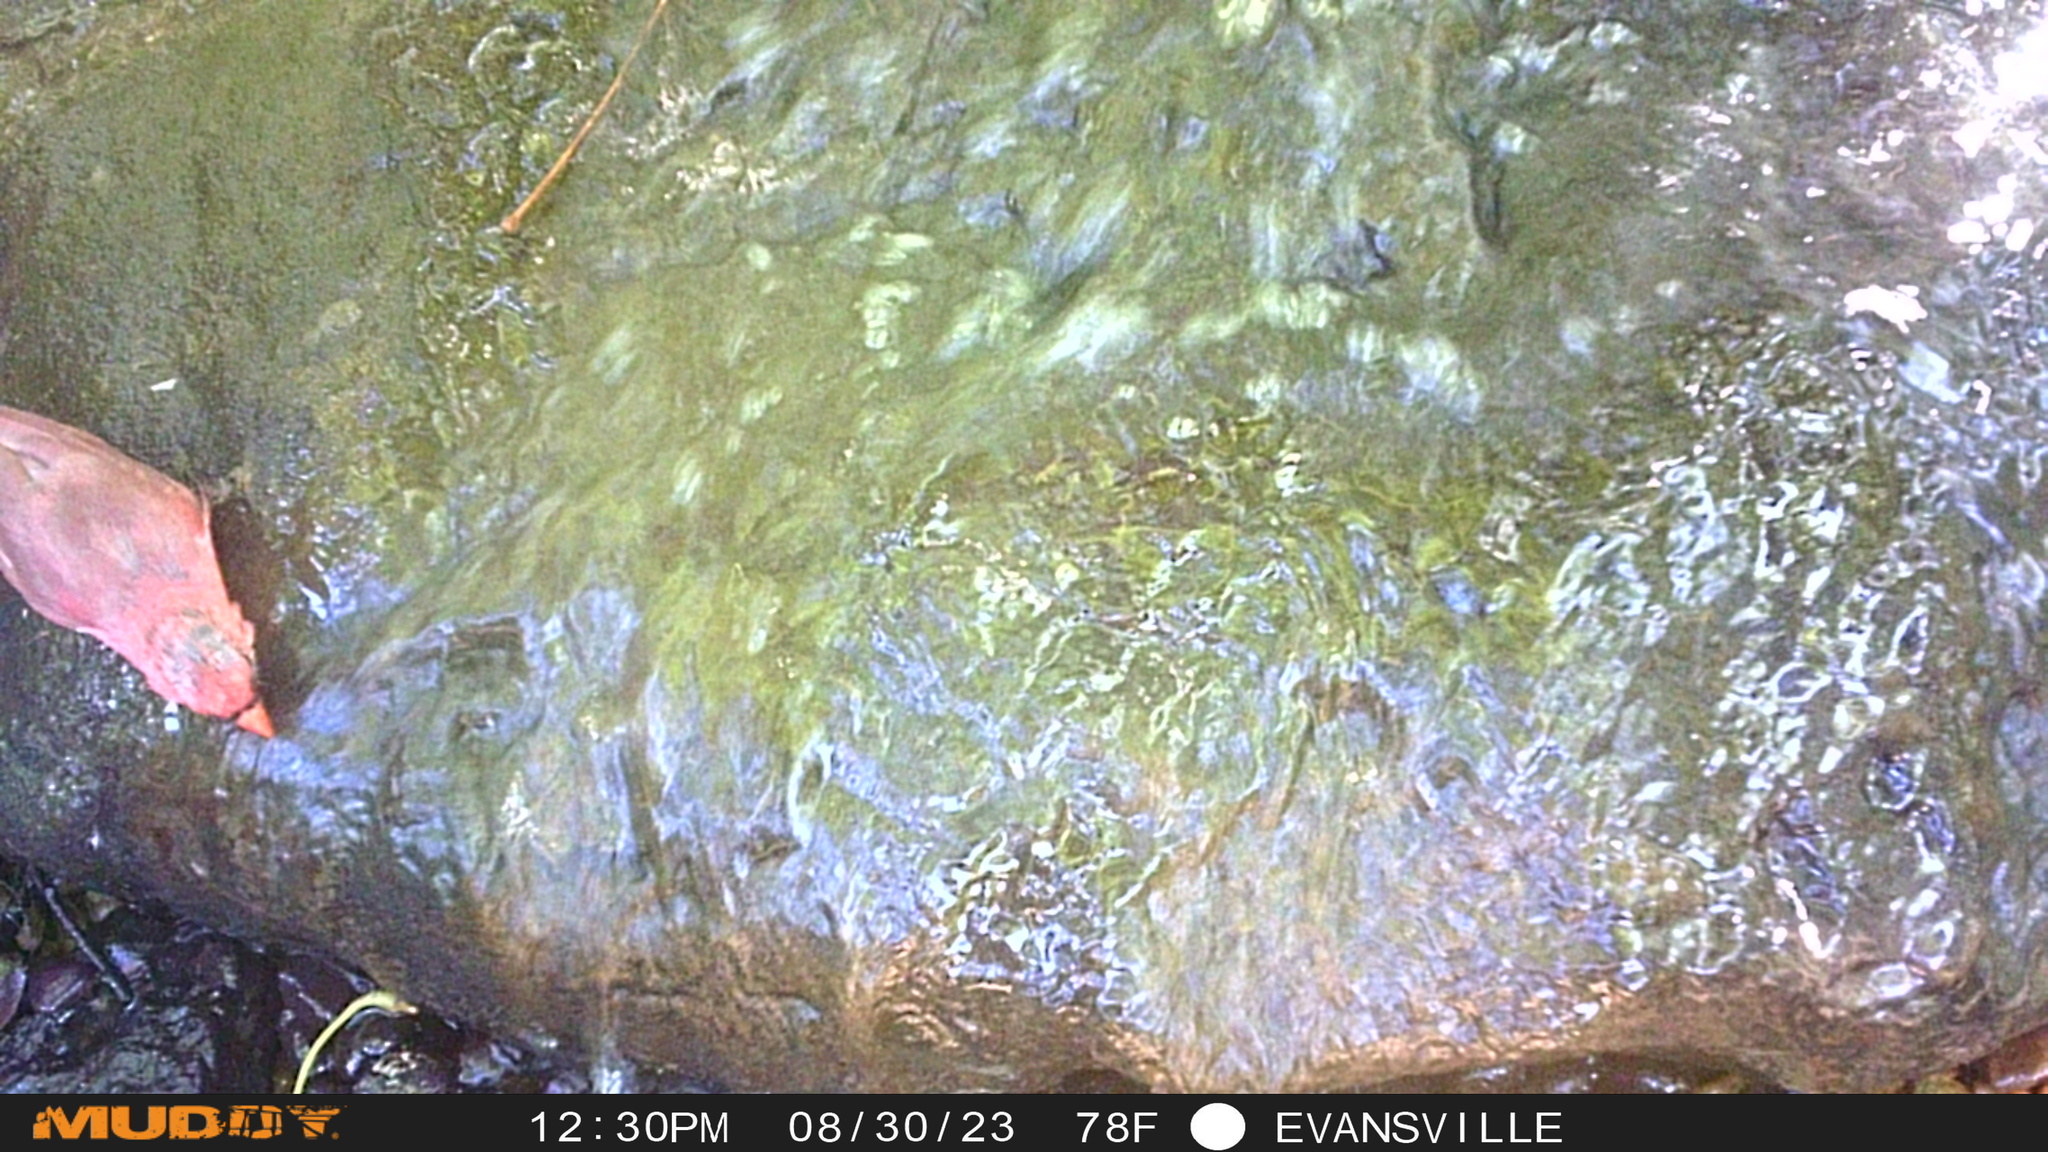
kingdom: Animalia
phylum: Chordata
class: Aves
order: Passeriformes
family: Cardinalidae
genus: Cardinalis
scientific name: Cardinalis cardinalis
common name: Northern cardinal
